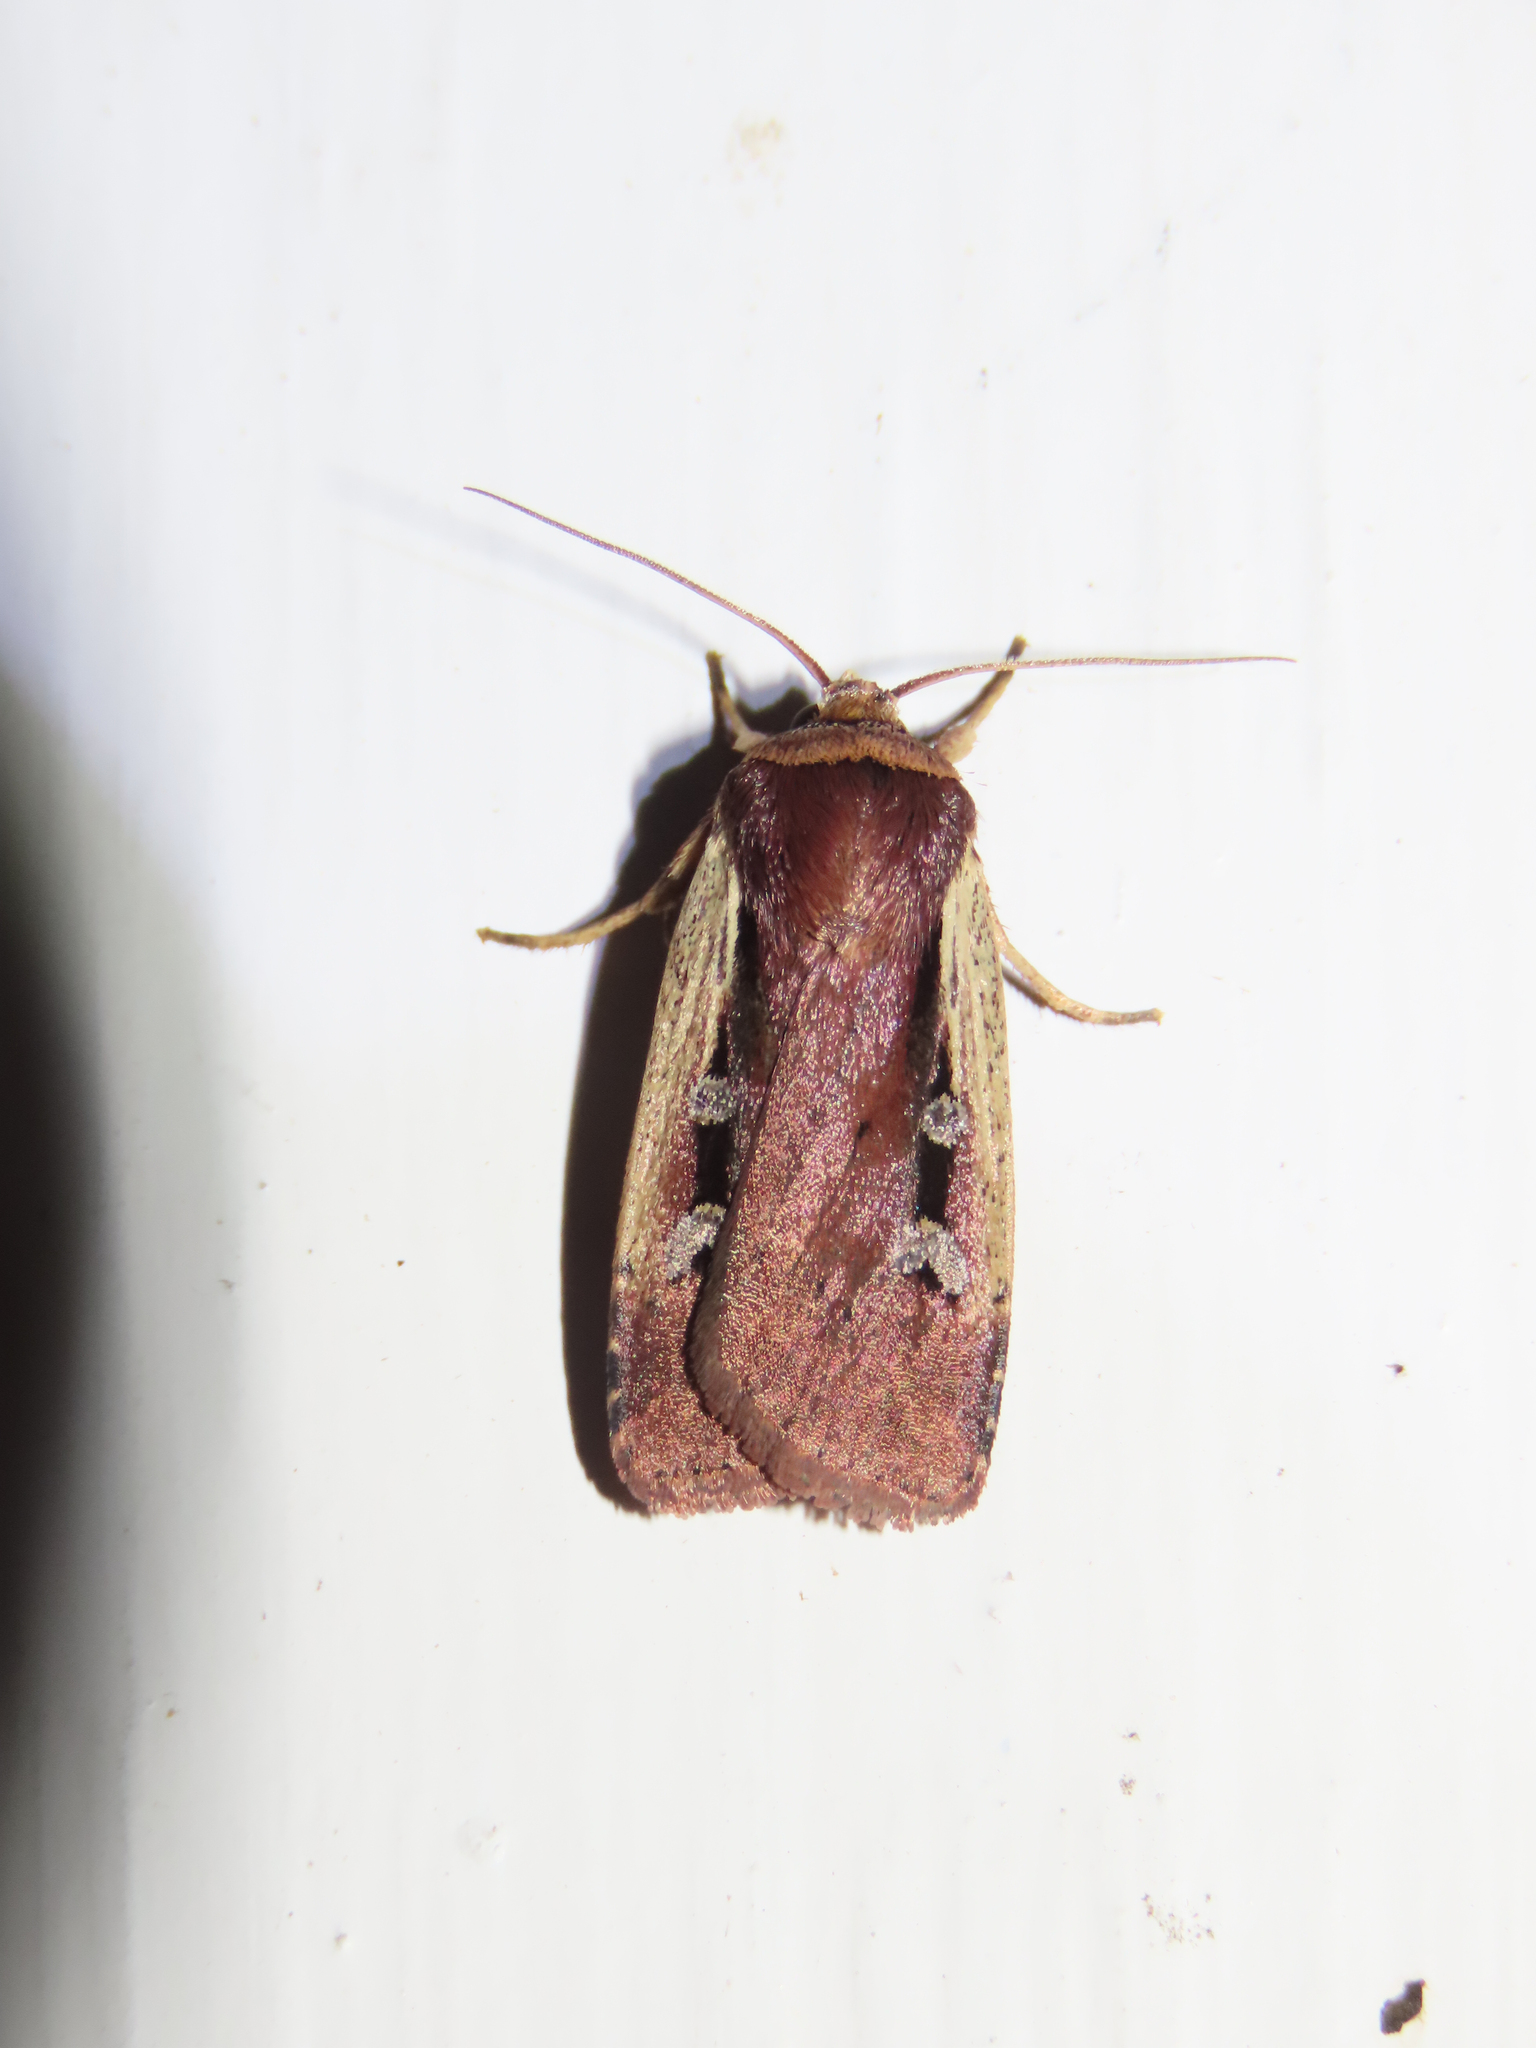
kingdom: Animalia
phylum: Arthropoda
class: Insecta
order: Lepidoptera
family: Noctuidae
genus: Ochropleura
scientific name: Ochropleura implecta
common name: Flame-shouldered dart
